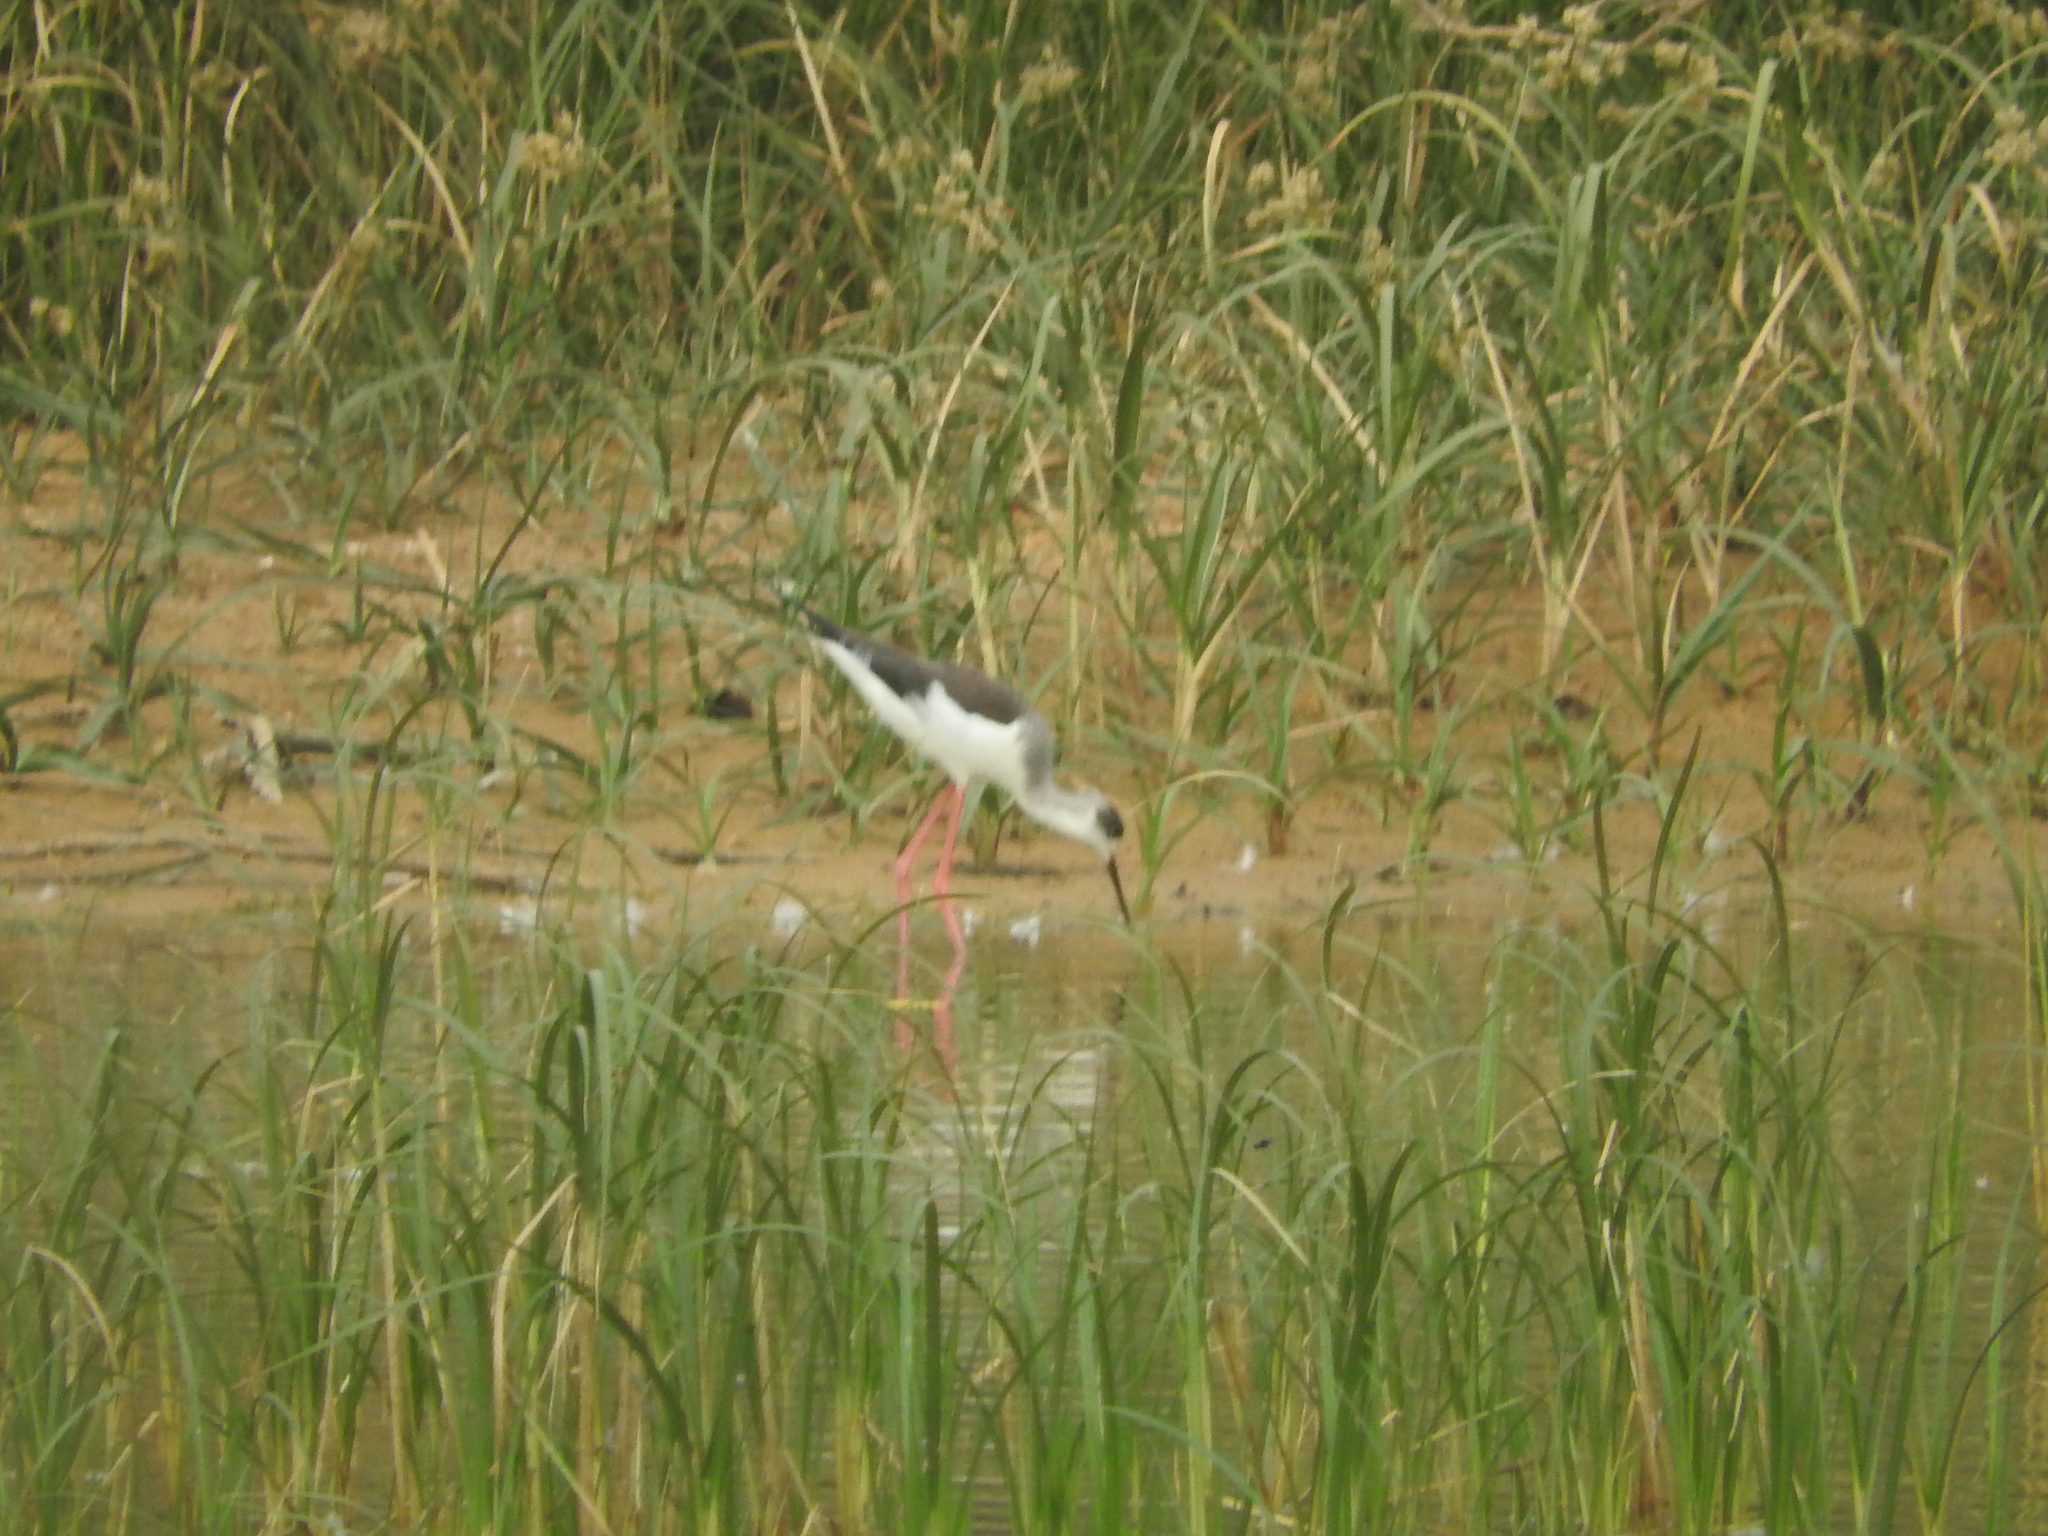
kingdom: Animalia
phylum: Chordata
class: Aves
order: Charadriiformes
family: Recurvirostridae
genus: Himantopus
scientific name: Himantopus himantopus
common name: Black-winged stilt
